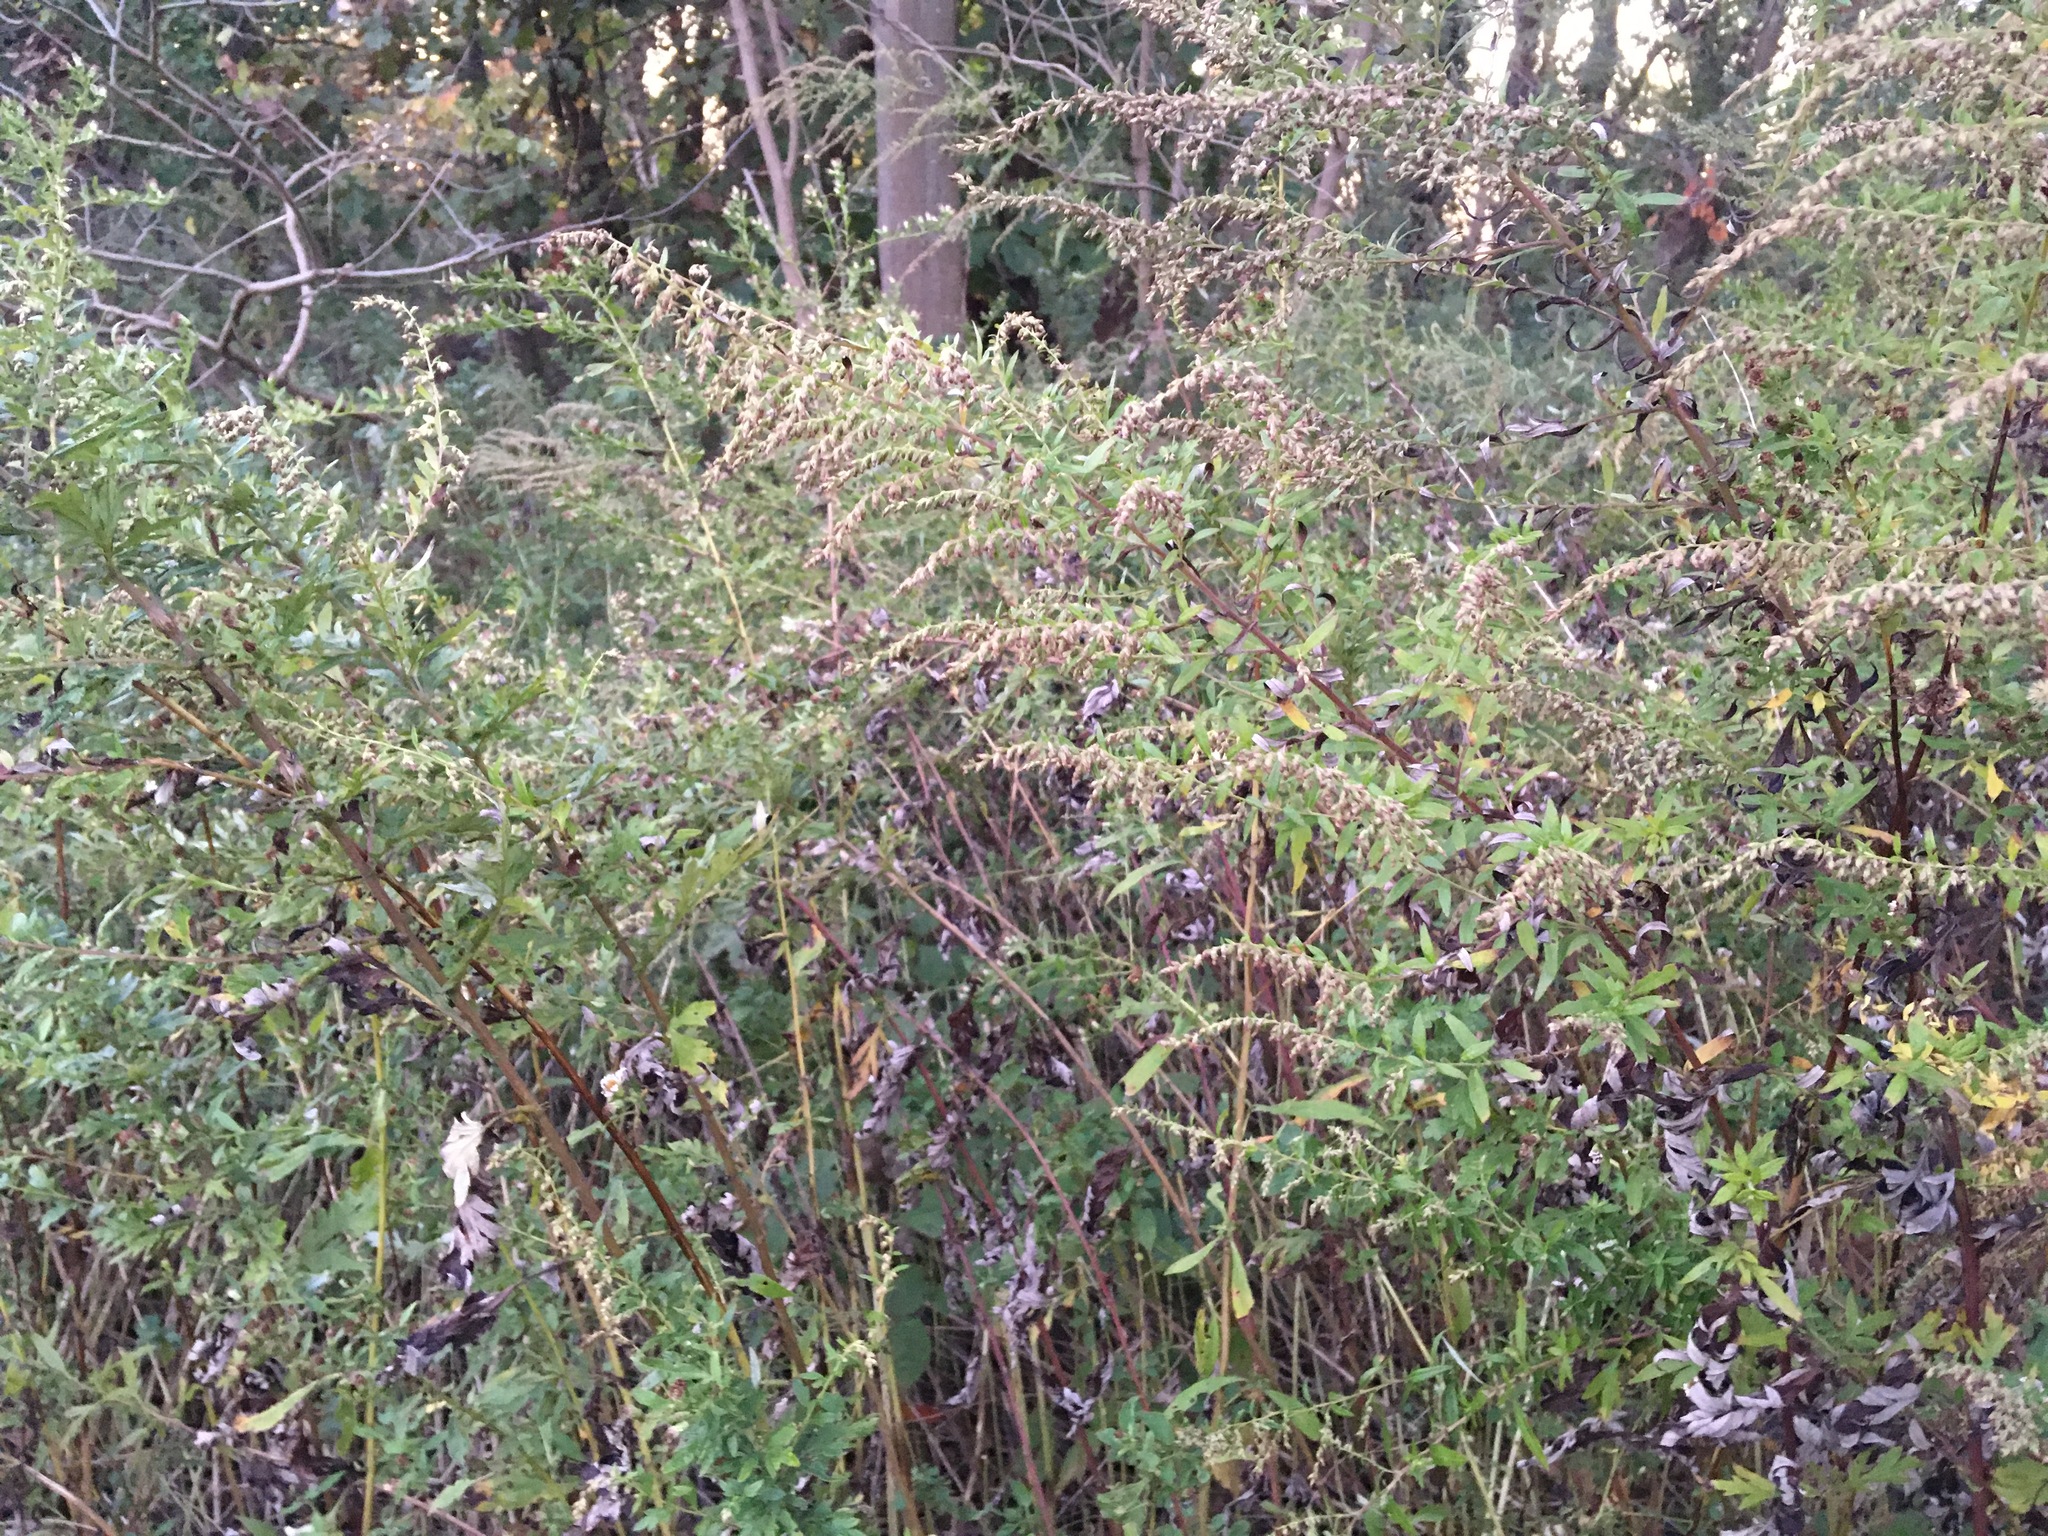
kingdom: Plantae
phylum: Tracheophyta
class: Magnoliopsida
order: Asterales
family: Asteraceae
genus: Artemisia
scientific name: Artemisia vulgaris
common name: Mugwort
